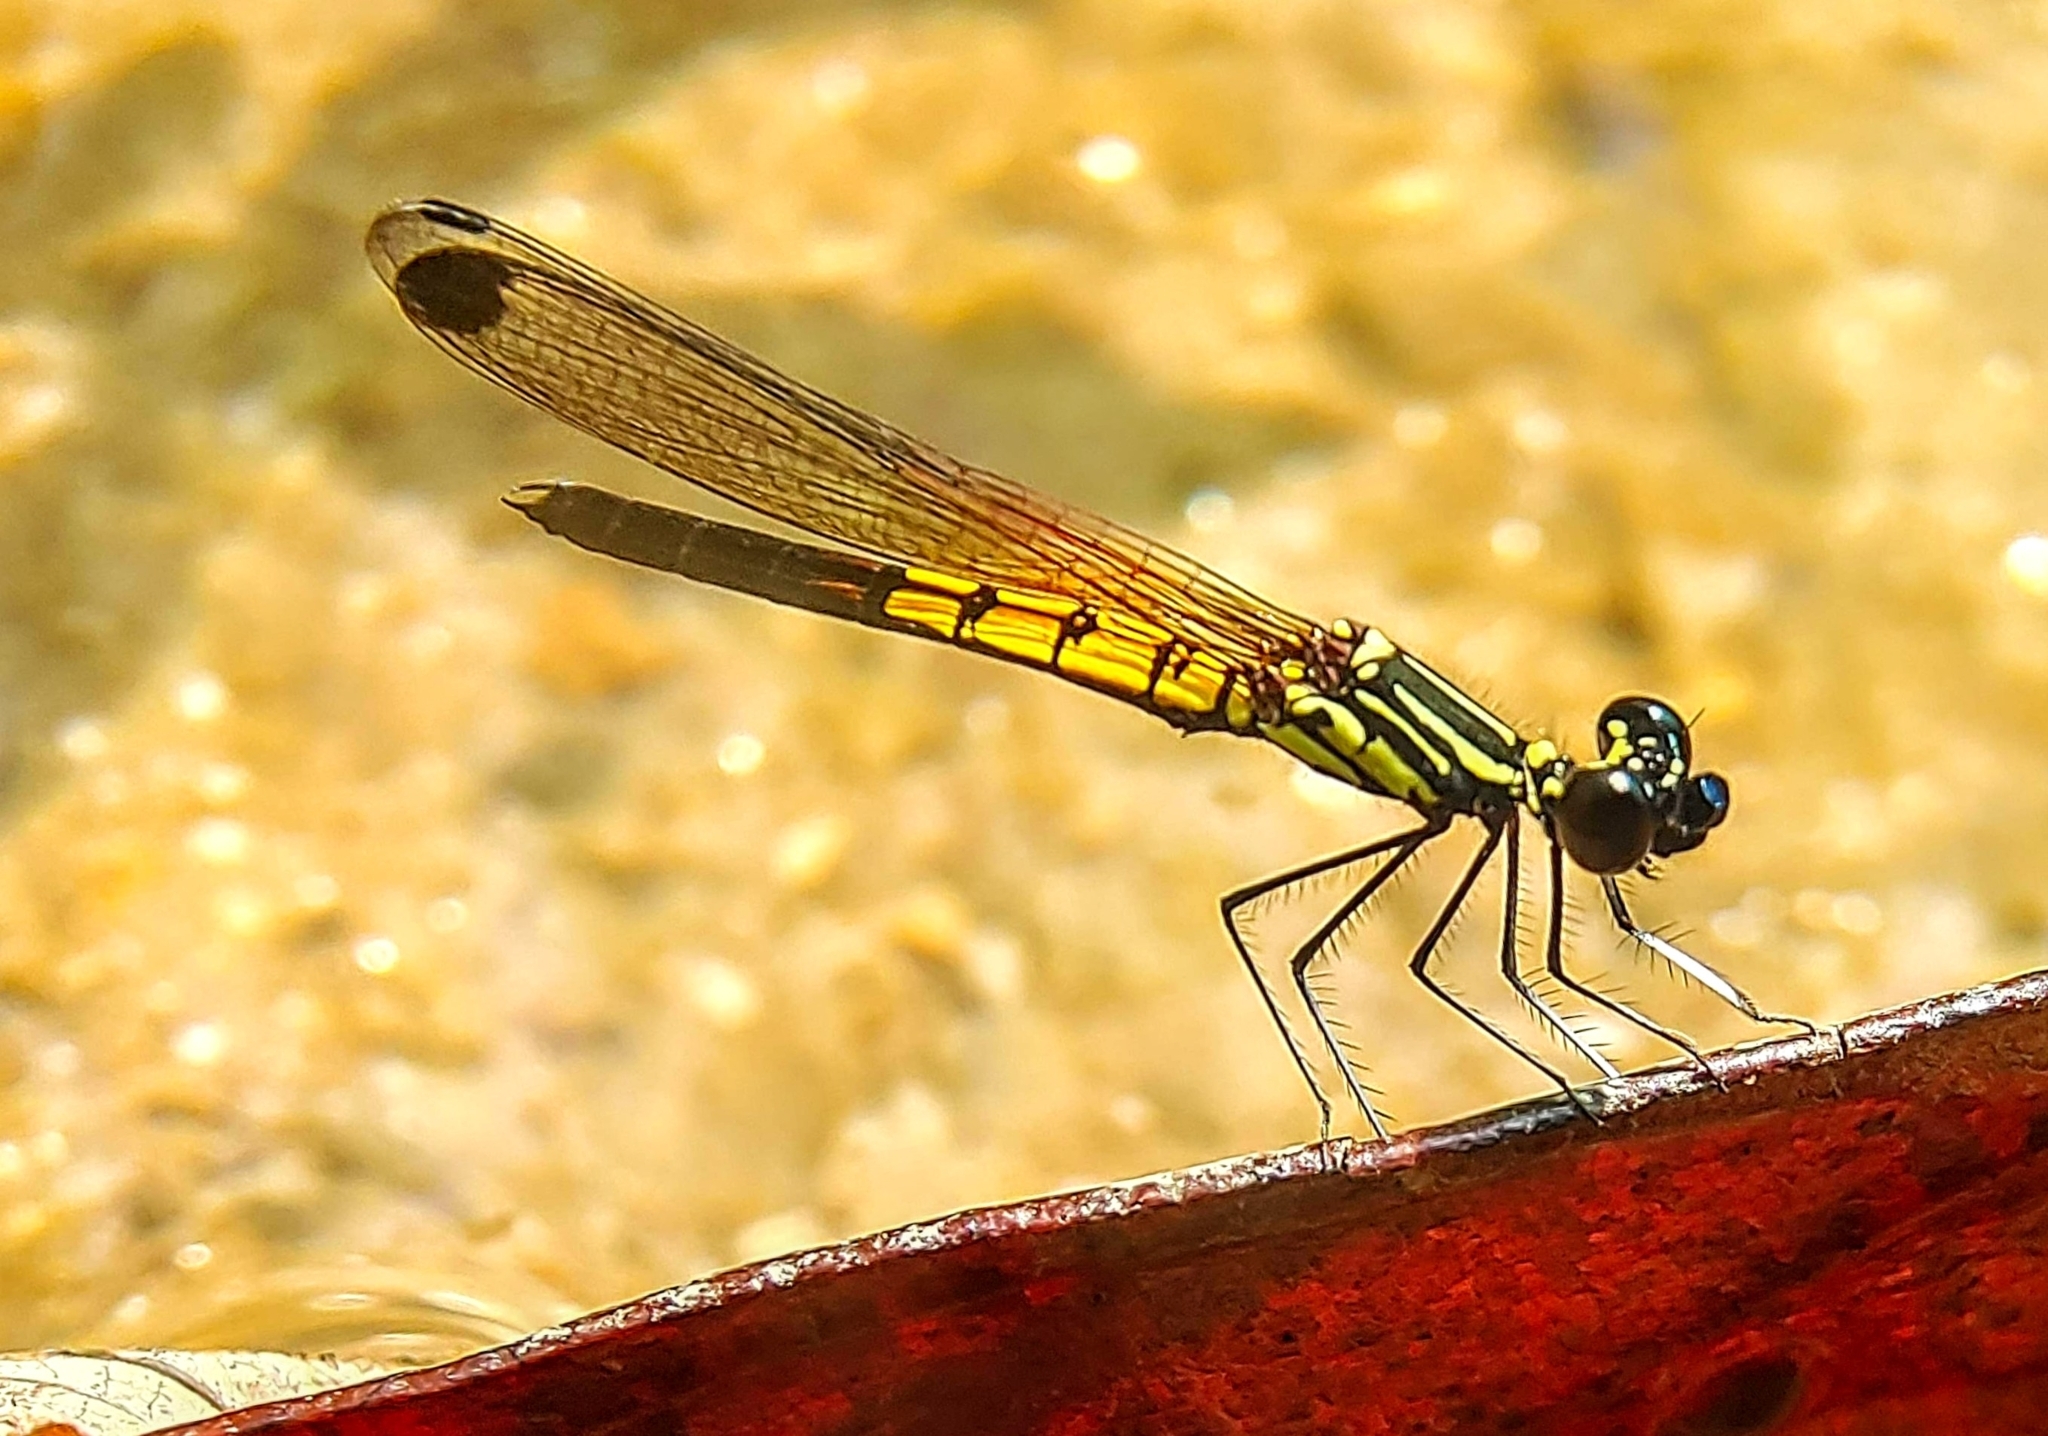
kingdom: Animalia
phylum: Arthropoda
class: Insecta
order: Odonata
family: Chlorocyphidae
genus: Libellago
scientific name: Libellago lineata
